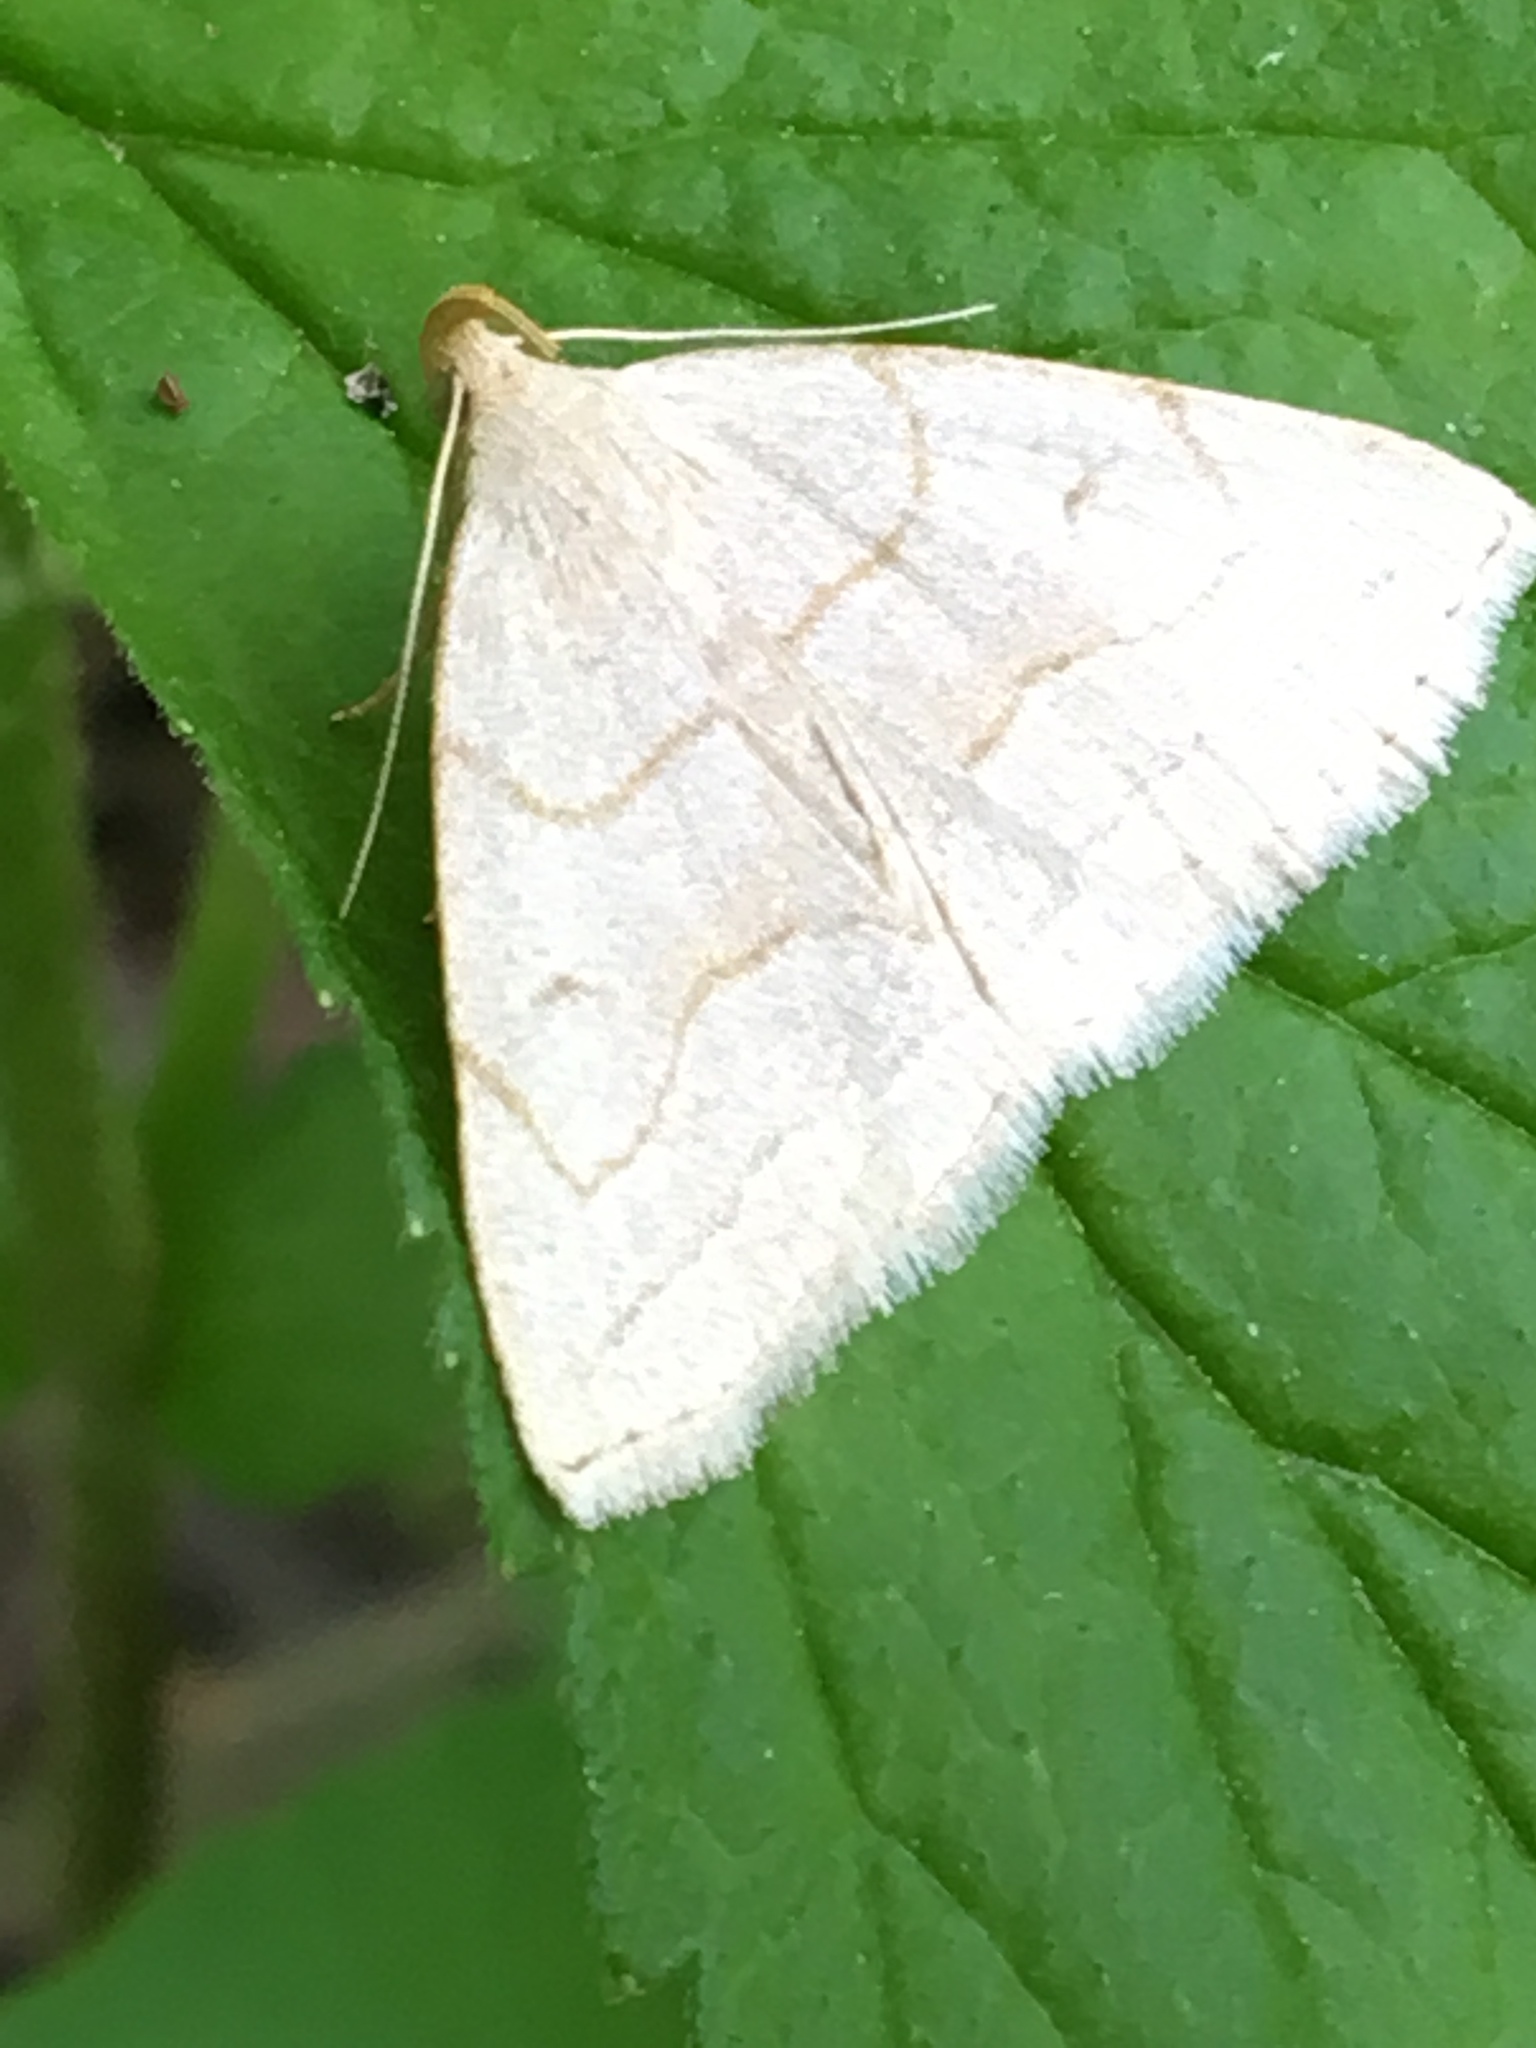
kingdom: Animalia
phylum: Arthropoda
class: Insecta
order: Lepidoptera
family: Erebidae
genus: Zanclognatha
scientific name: Zanclognatha pedipilalis
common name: Grayish fan-foot
